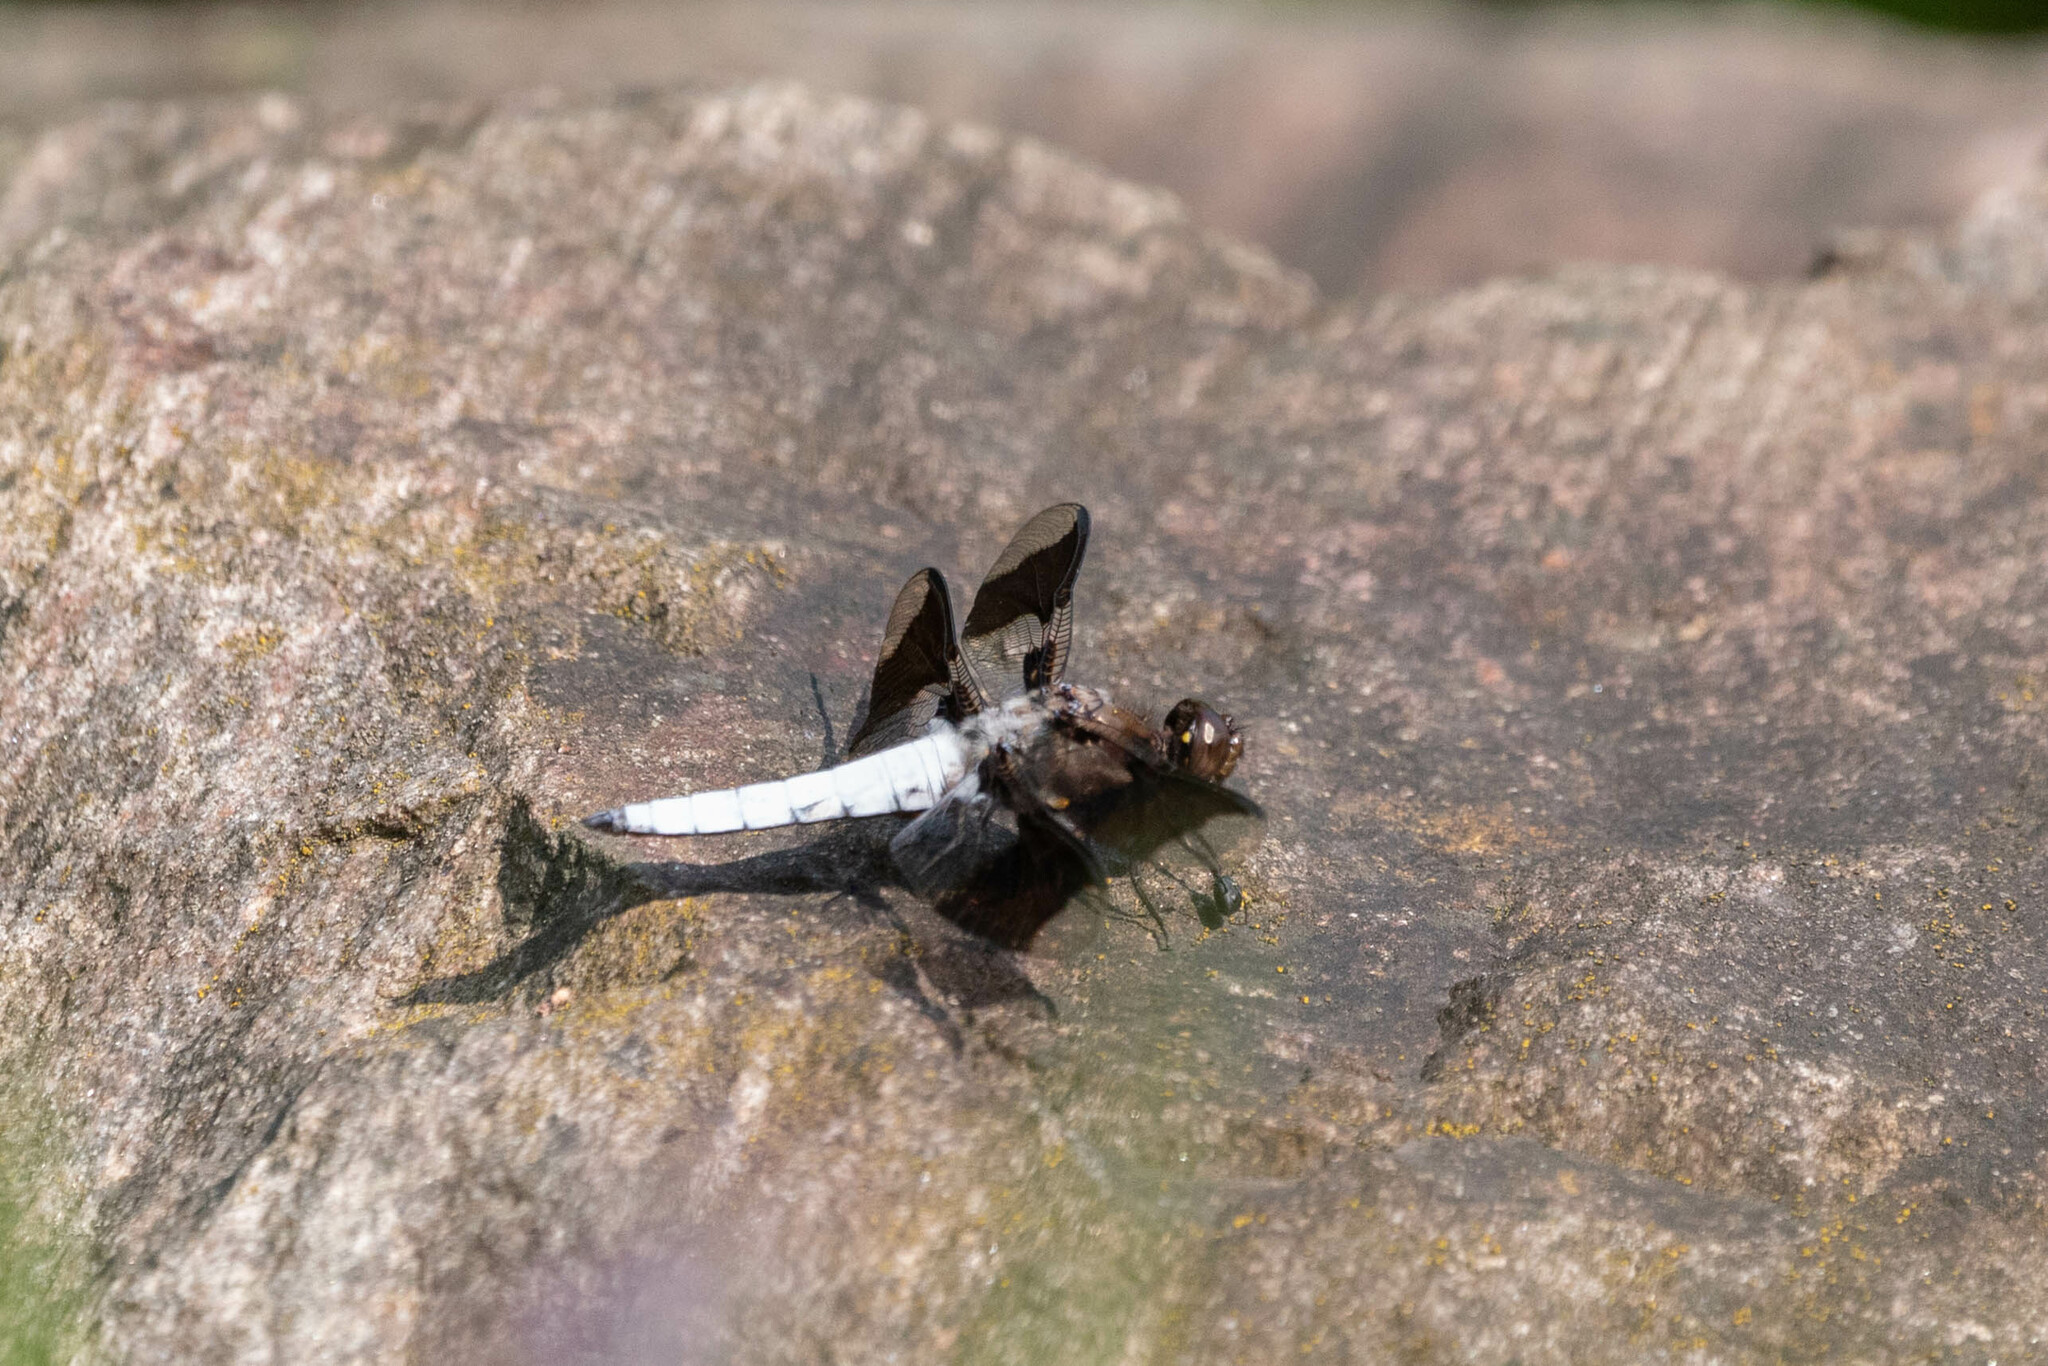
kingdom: Animalia
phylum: Arthropoda
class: Insecta
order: Odonata
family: Libellulidae
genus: Plathemis
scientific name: Plathemis lydia
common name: Common whitetail
